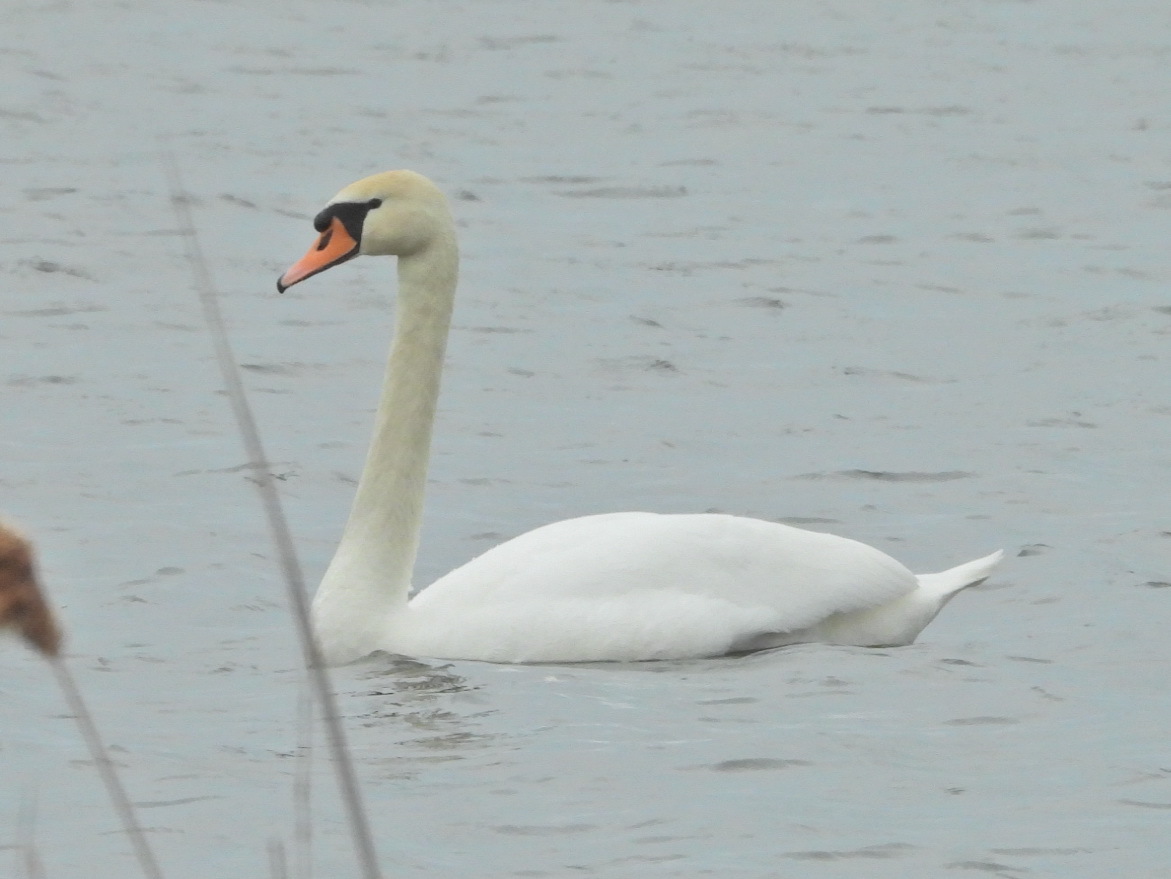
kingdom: Animalia
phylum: Chordata
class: Aves
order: Anseriformes
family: Anatidae
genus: Cygnus
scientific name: Cygnus olor
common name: Mute swan
